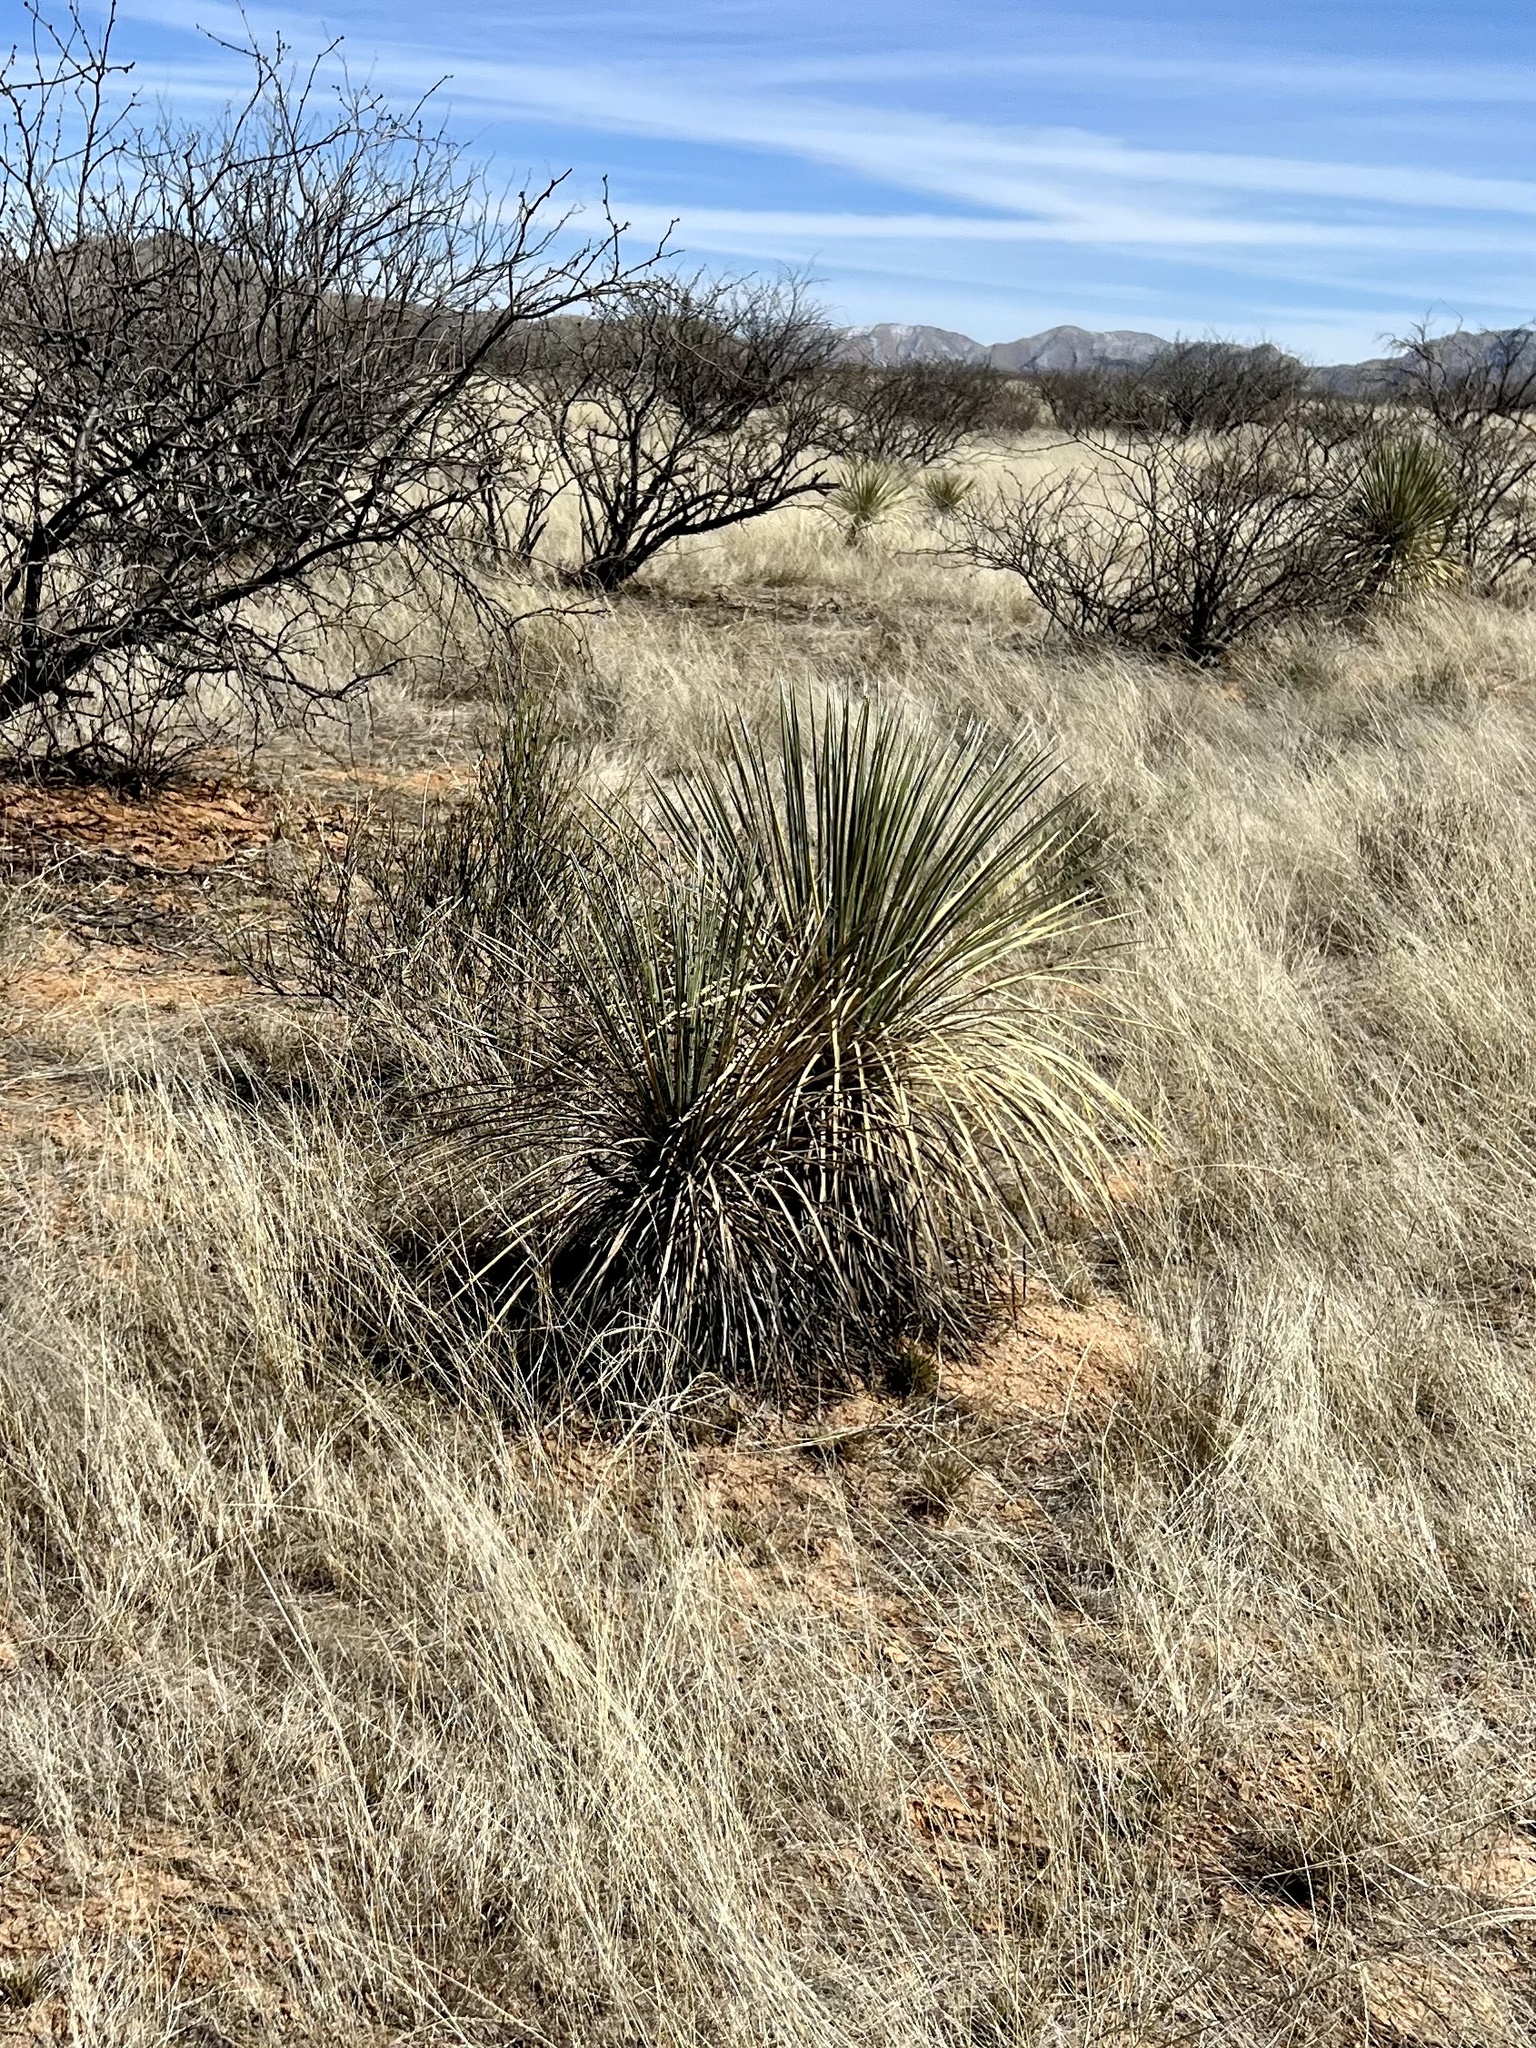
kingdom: Plantae
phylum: Tracheophyta
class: Liliopsida
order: Asparagales
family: Asparagaceae
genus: Yucca
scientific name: Yucca elata
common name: Palmella
